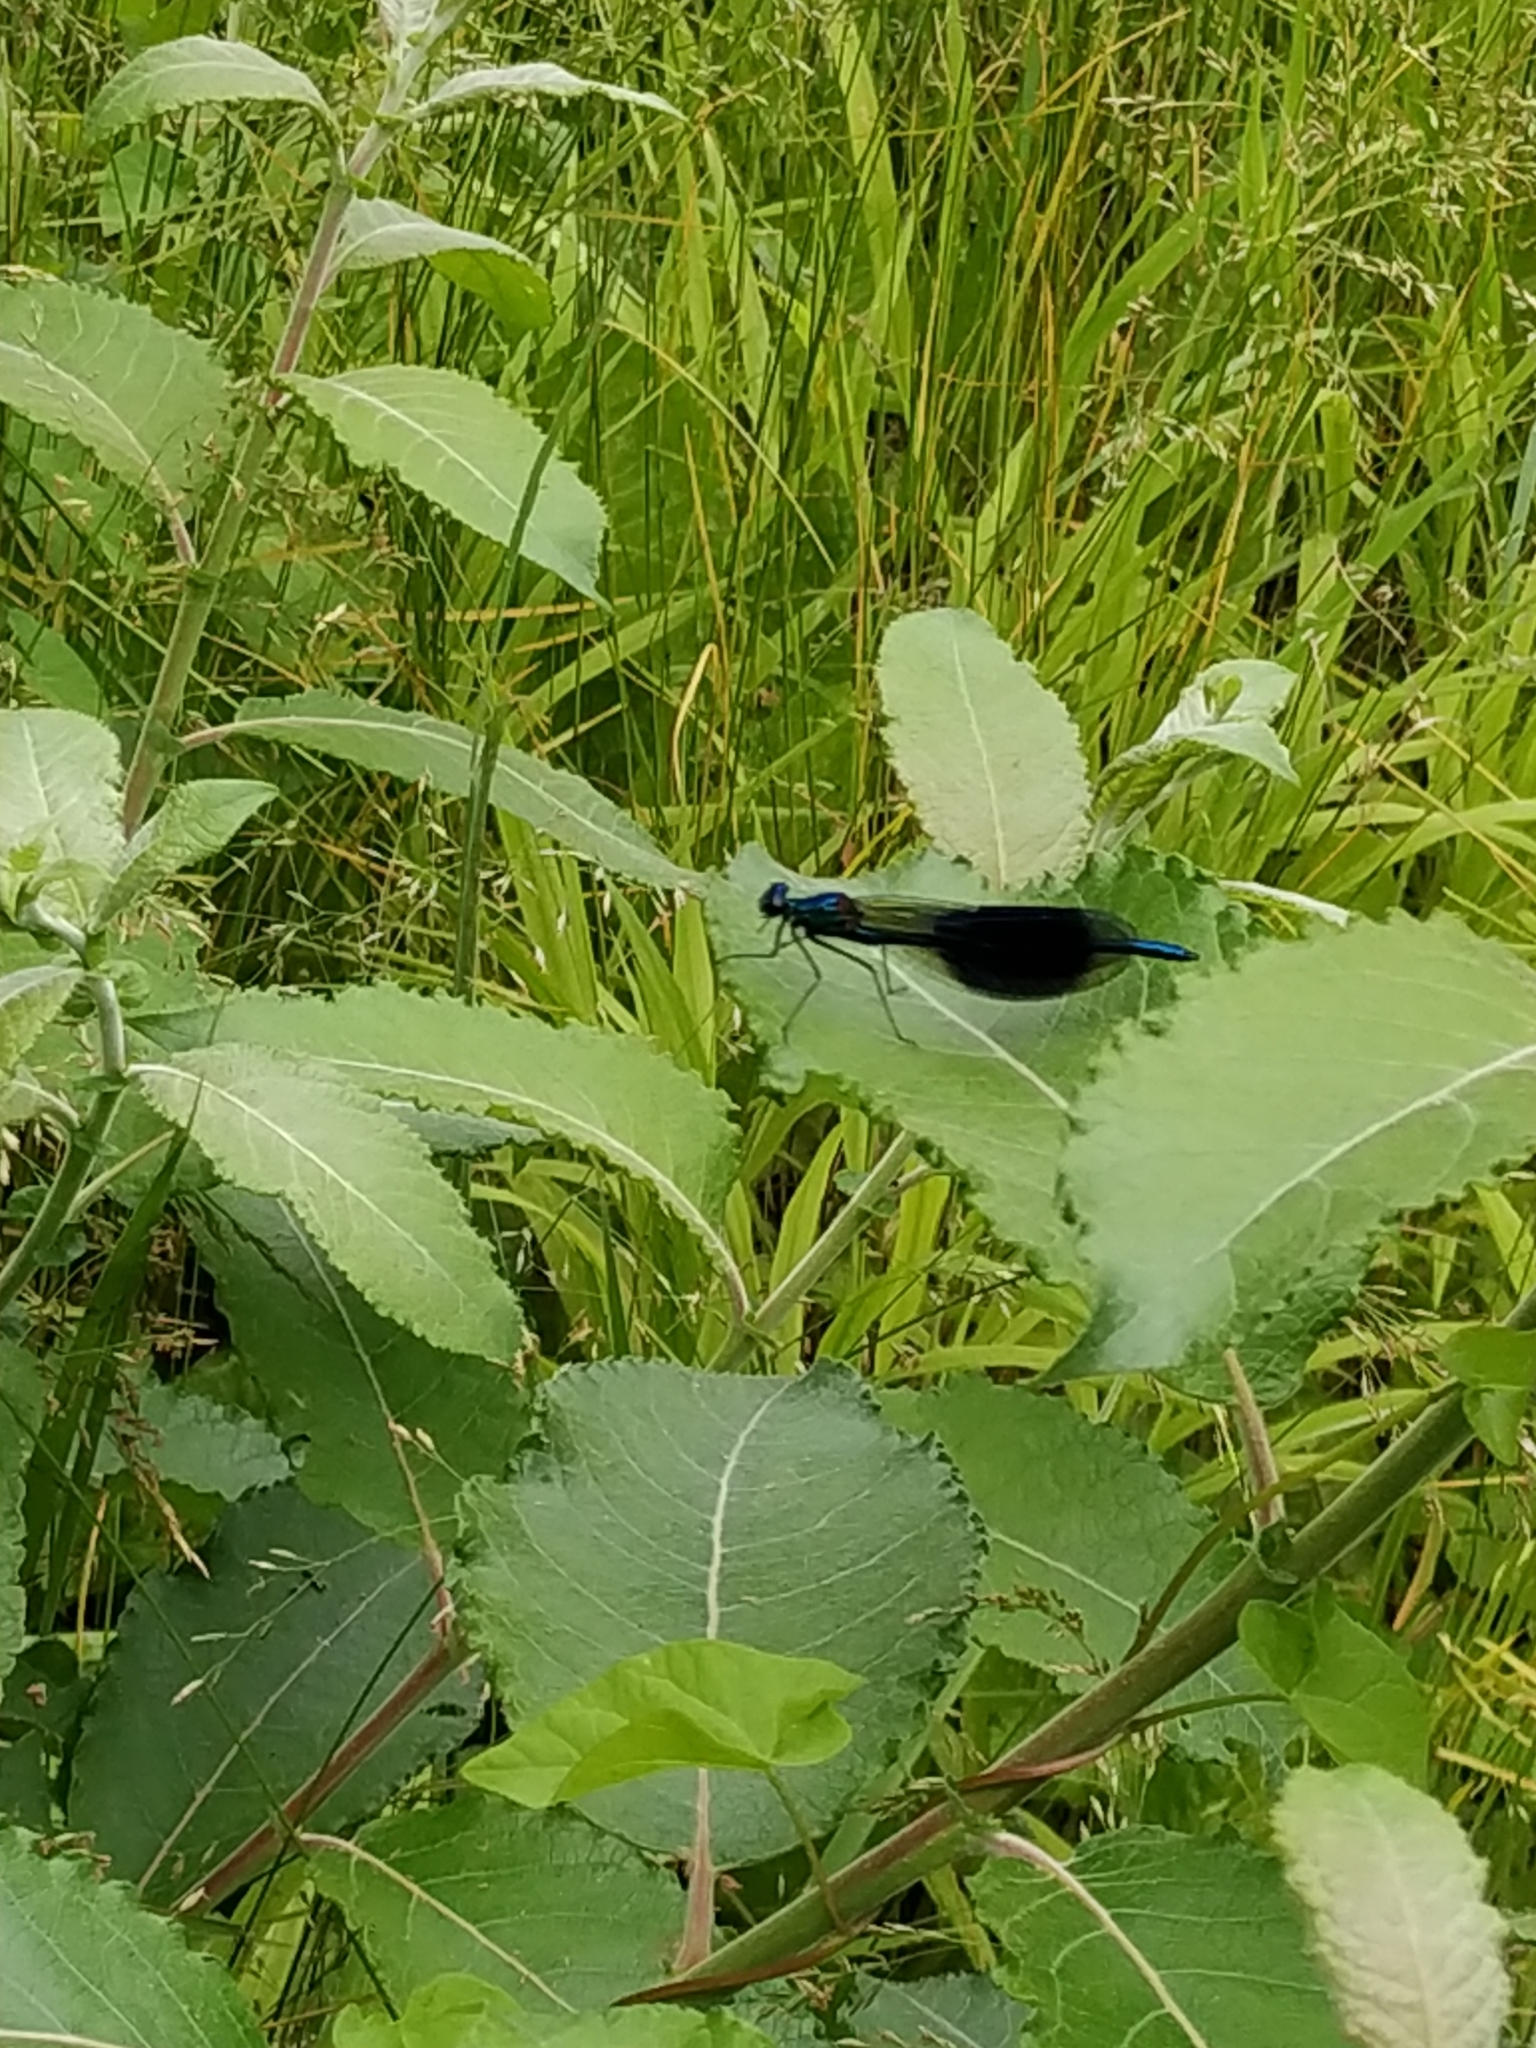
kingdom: Animalia
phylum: Arthropoda
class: Insecta
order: Odonata
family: Calopterygidae
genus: Calopteryx
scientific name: Calopteryx splendens
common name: Banded demoiselle
